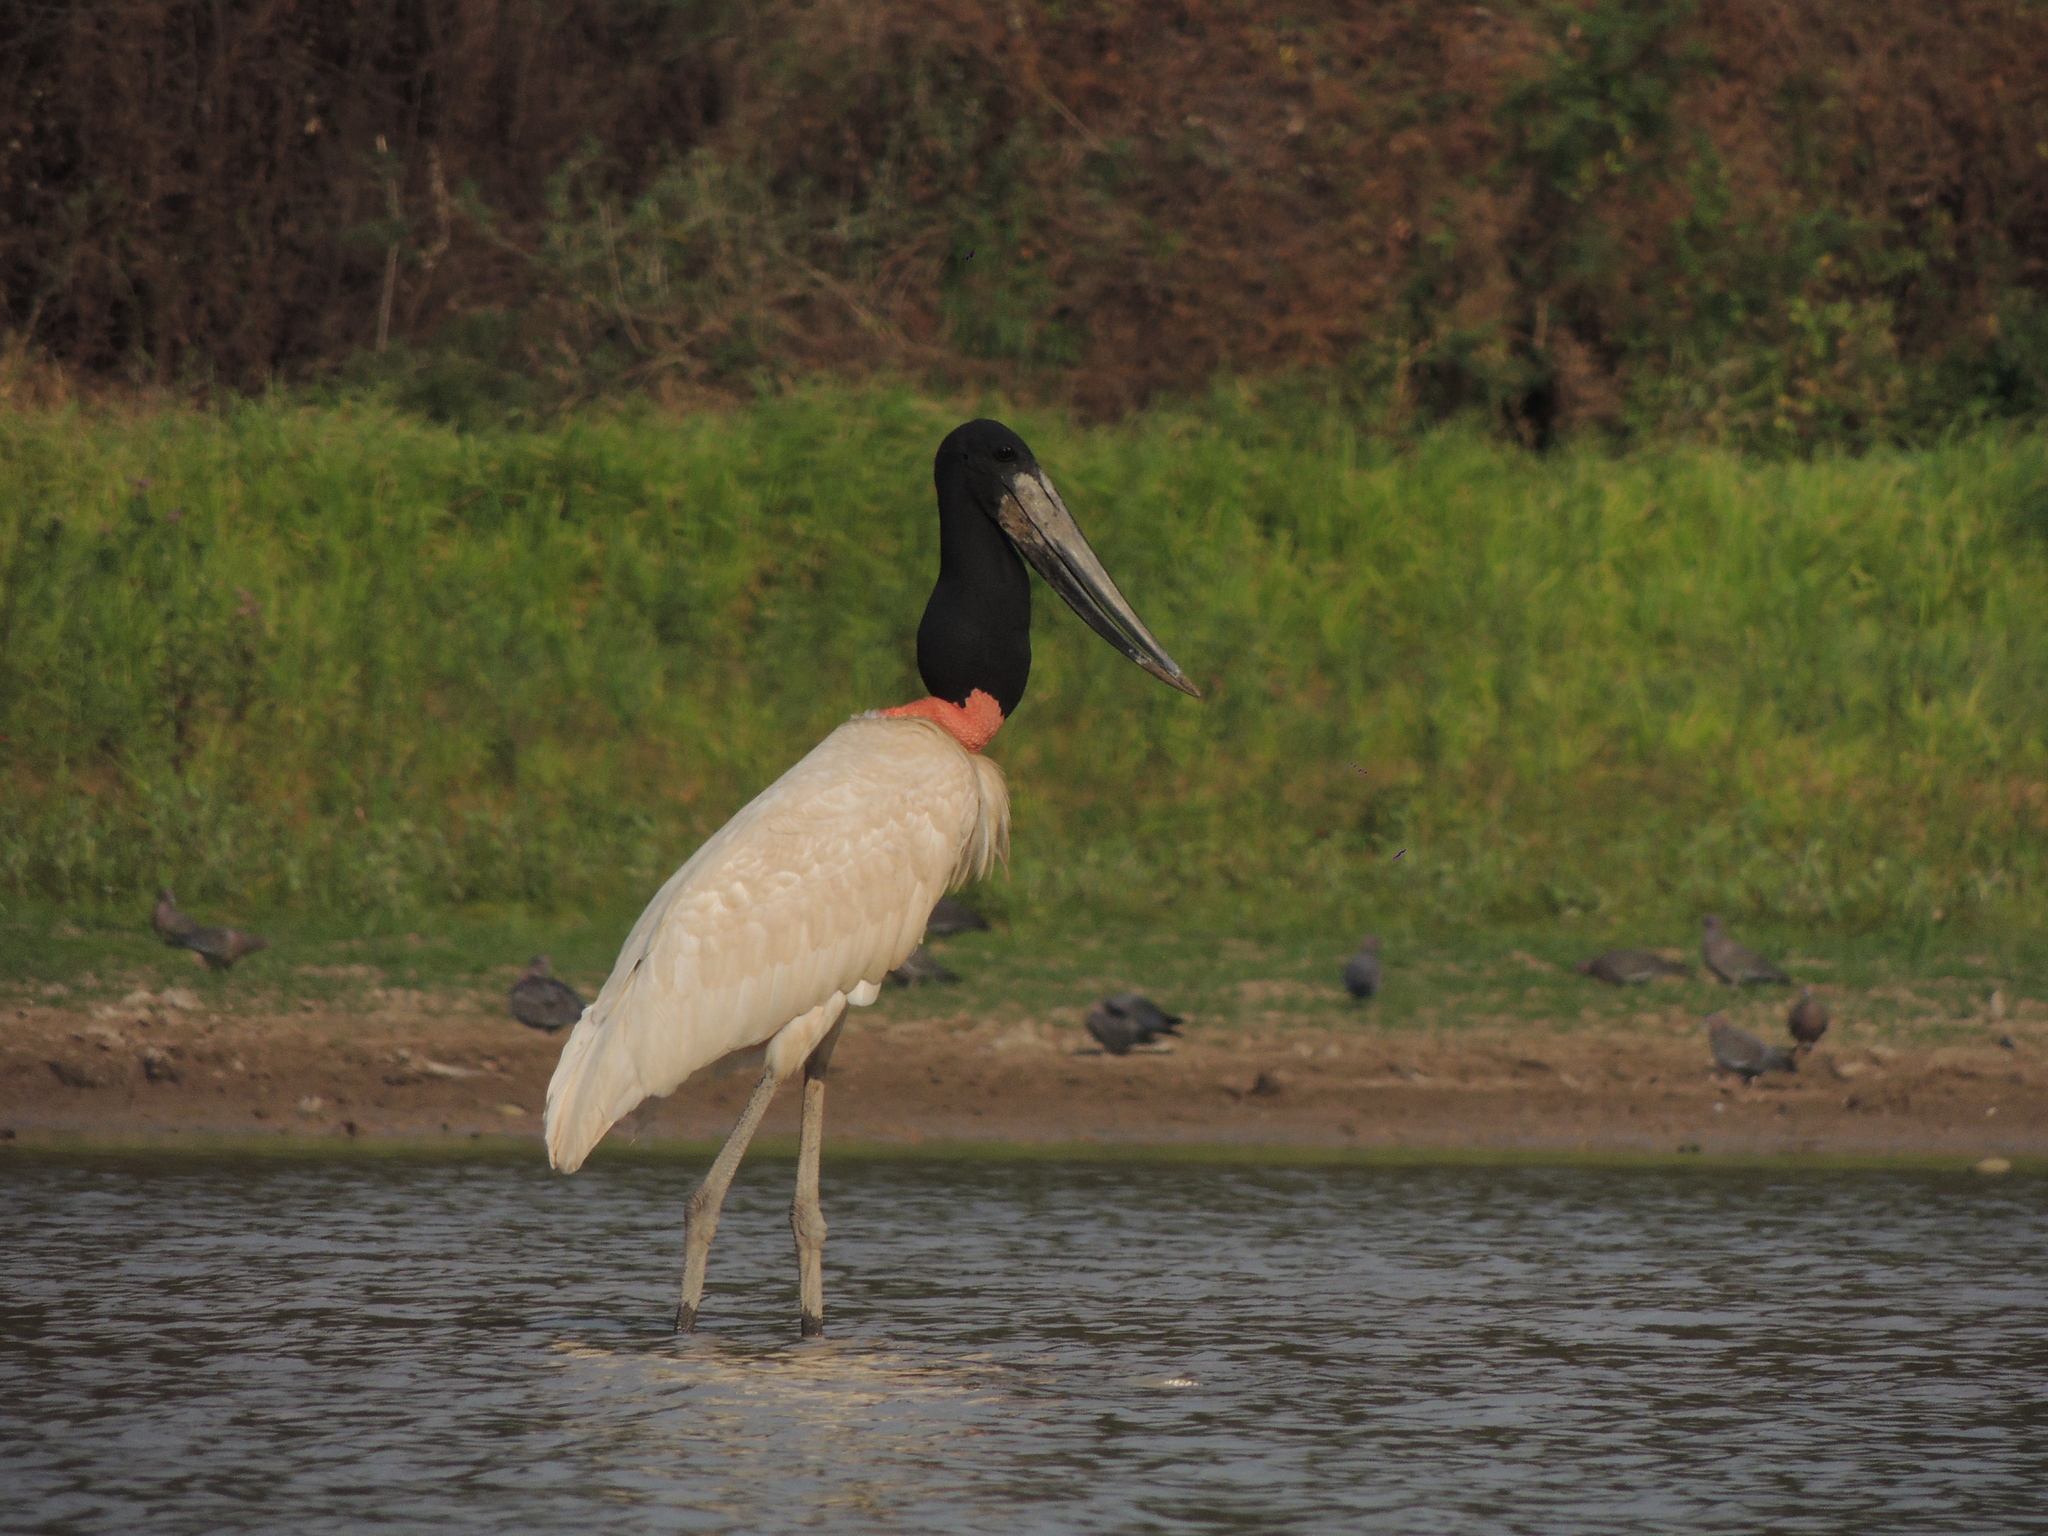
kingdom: Animalia
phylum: Chordata
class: Aves
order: Ciconiiformes
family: Ciconiidae
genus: Jabiru
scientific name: Jabiru mycteria
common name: Jabiru
